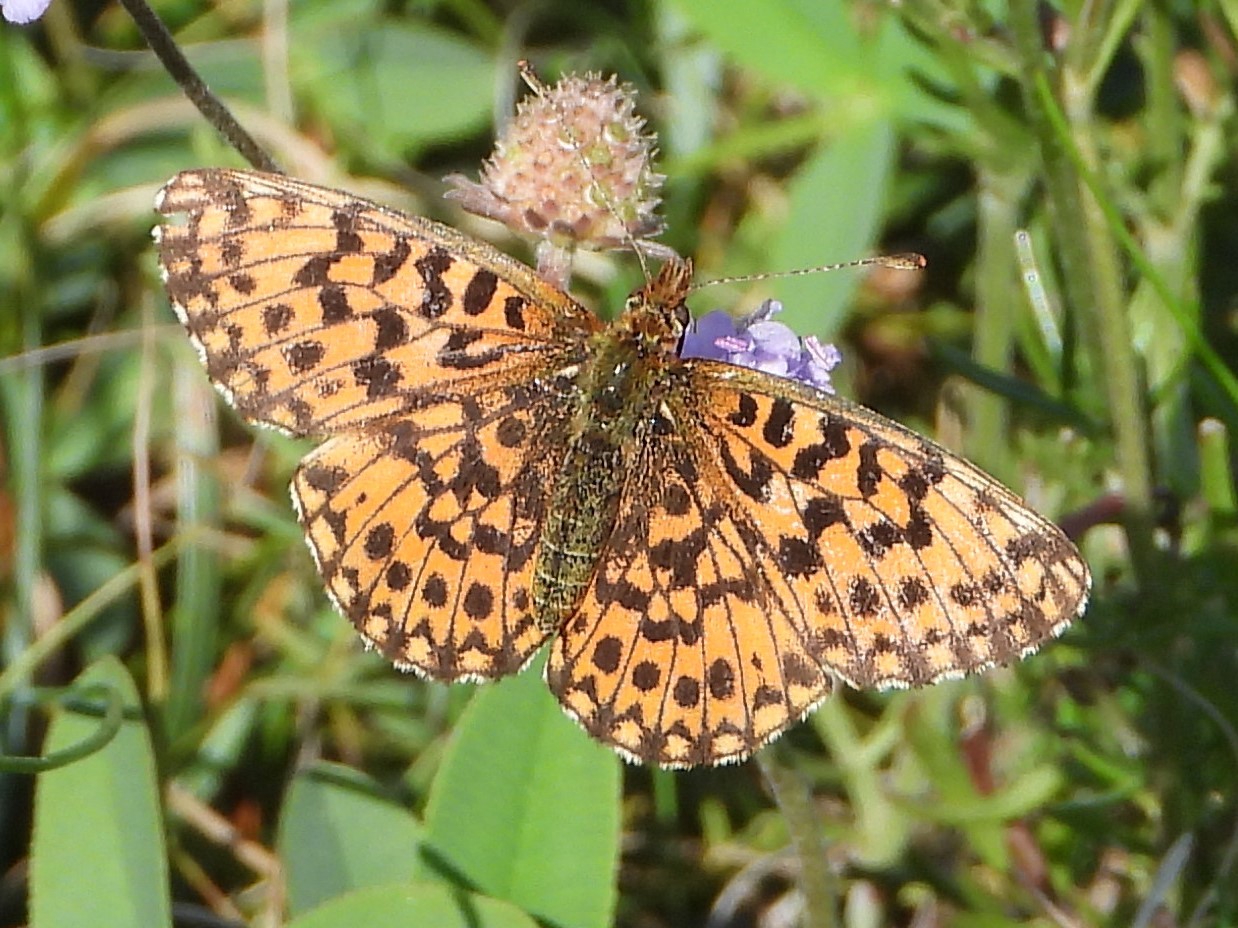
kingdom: Animalia
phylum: Arthropoda
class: Insecta
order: Lepidoptera
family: Nymphalidae
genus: Boloria
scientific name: Boloria dia
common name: Weaver's fritillary
